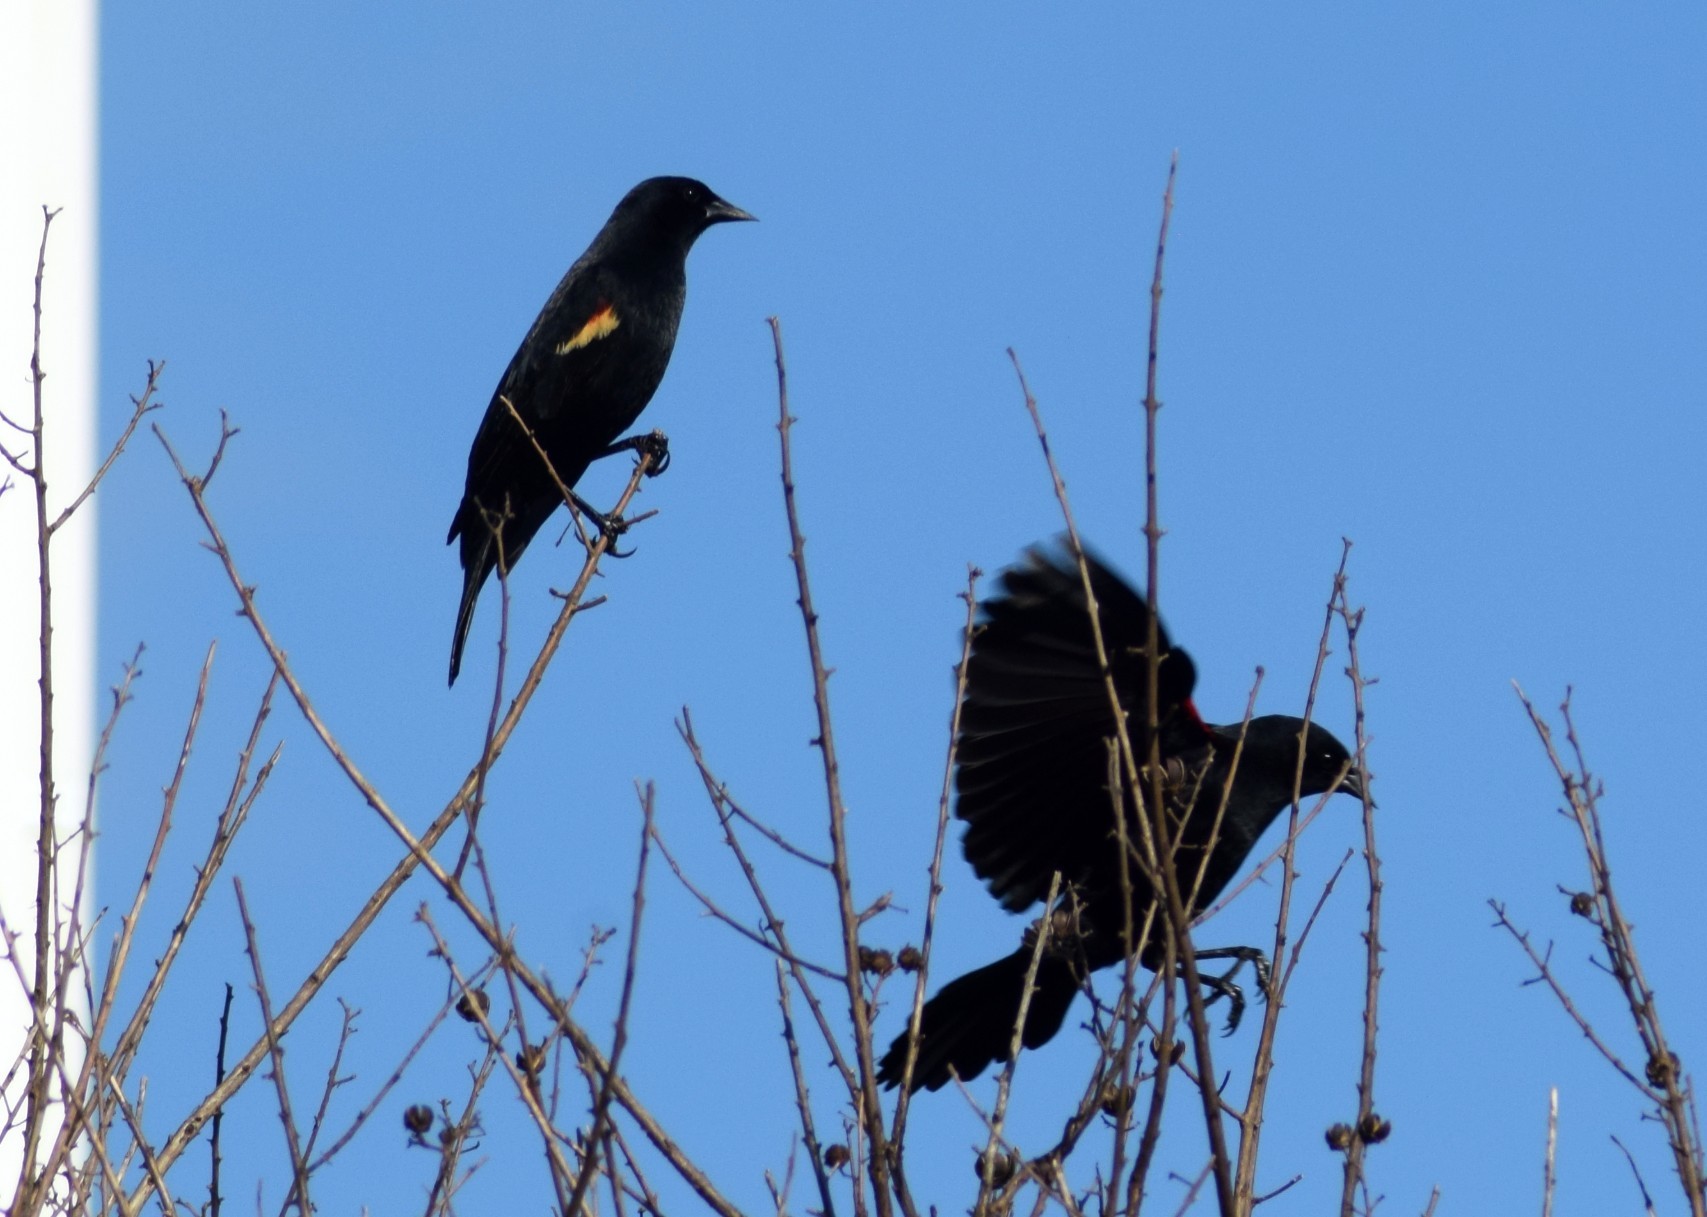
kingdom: Animalia
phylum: Chordata
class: Aves
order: Passeriformes
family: Icteridae
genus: Agelaius
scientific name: Agelaius phoeniceus
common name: Red-winged blackbird
